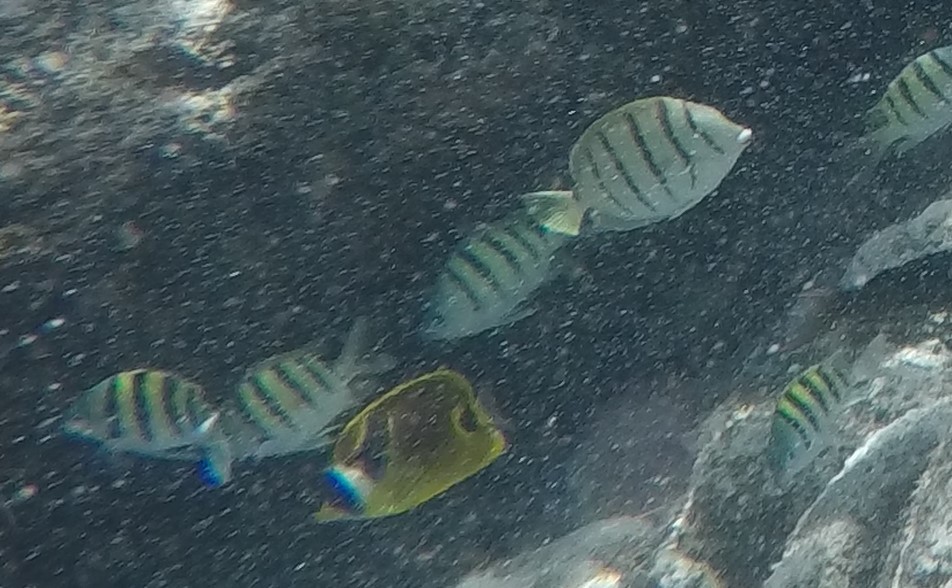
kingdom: Animalia
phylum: Chordata
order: Perciformes
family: Chaetodontidae
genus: Chaetodon
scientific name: Chaetodon lunula
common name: Raccoon butterflyfish
